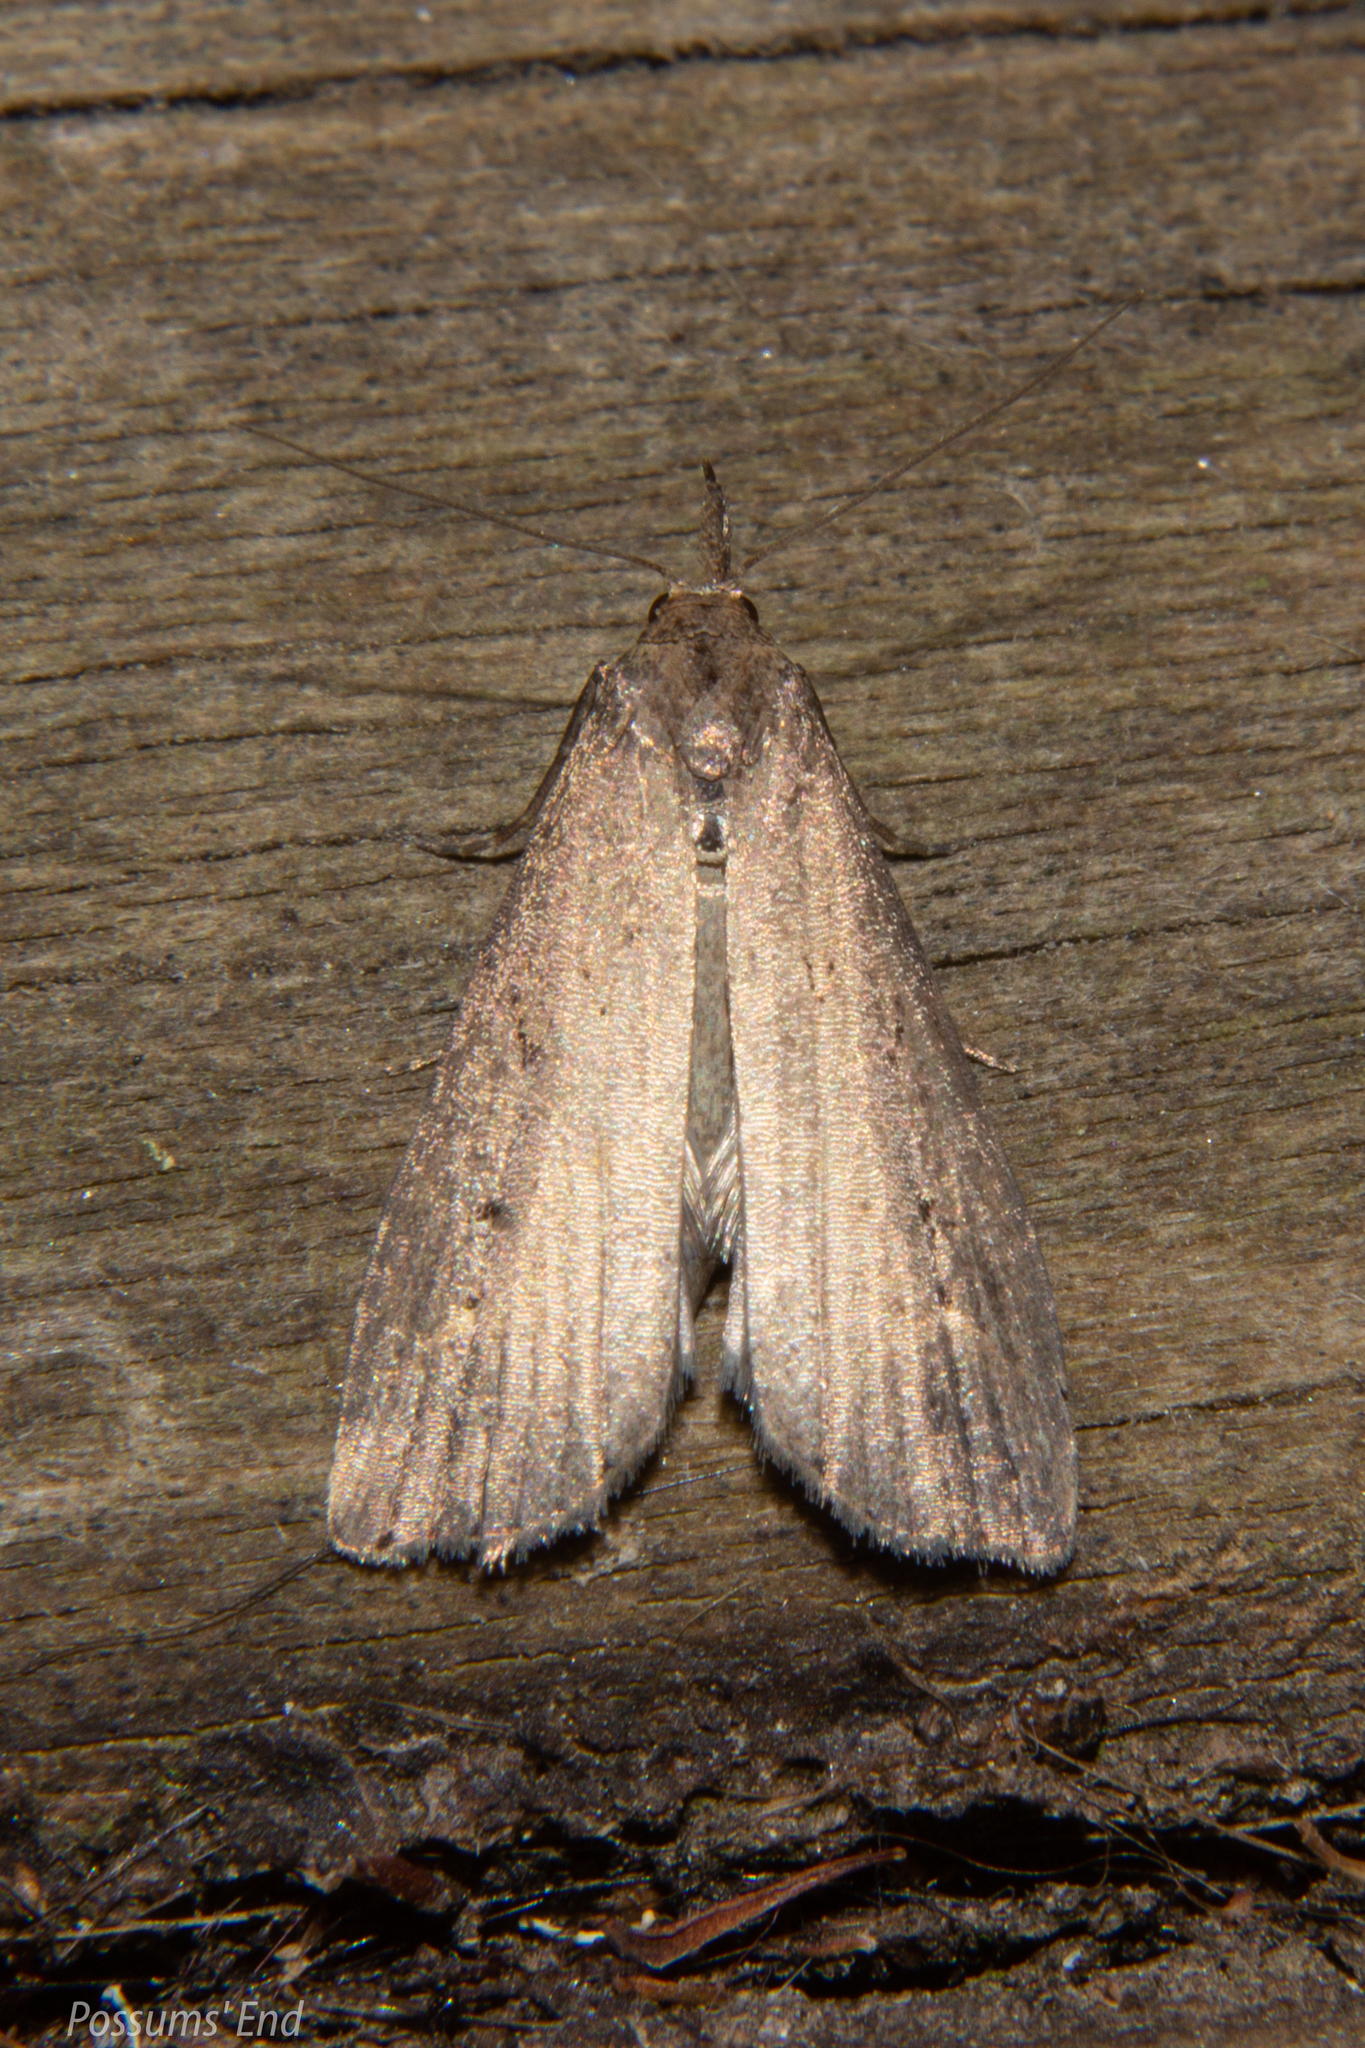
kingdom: Animalia
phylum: Arthropoda
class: Insecta
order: Lepidoptera
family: Erebidae
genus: Schrankia
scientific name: Schrankia costaestrigalis
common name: Pinion-streaked snout
